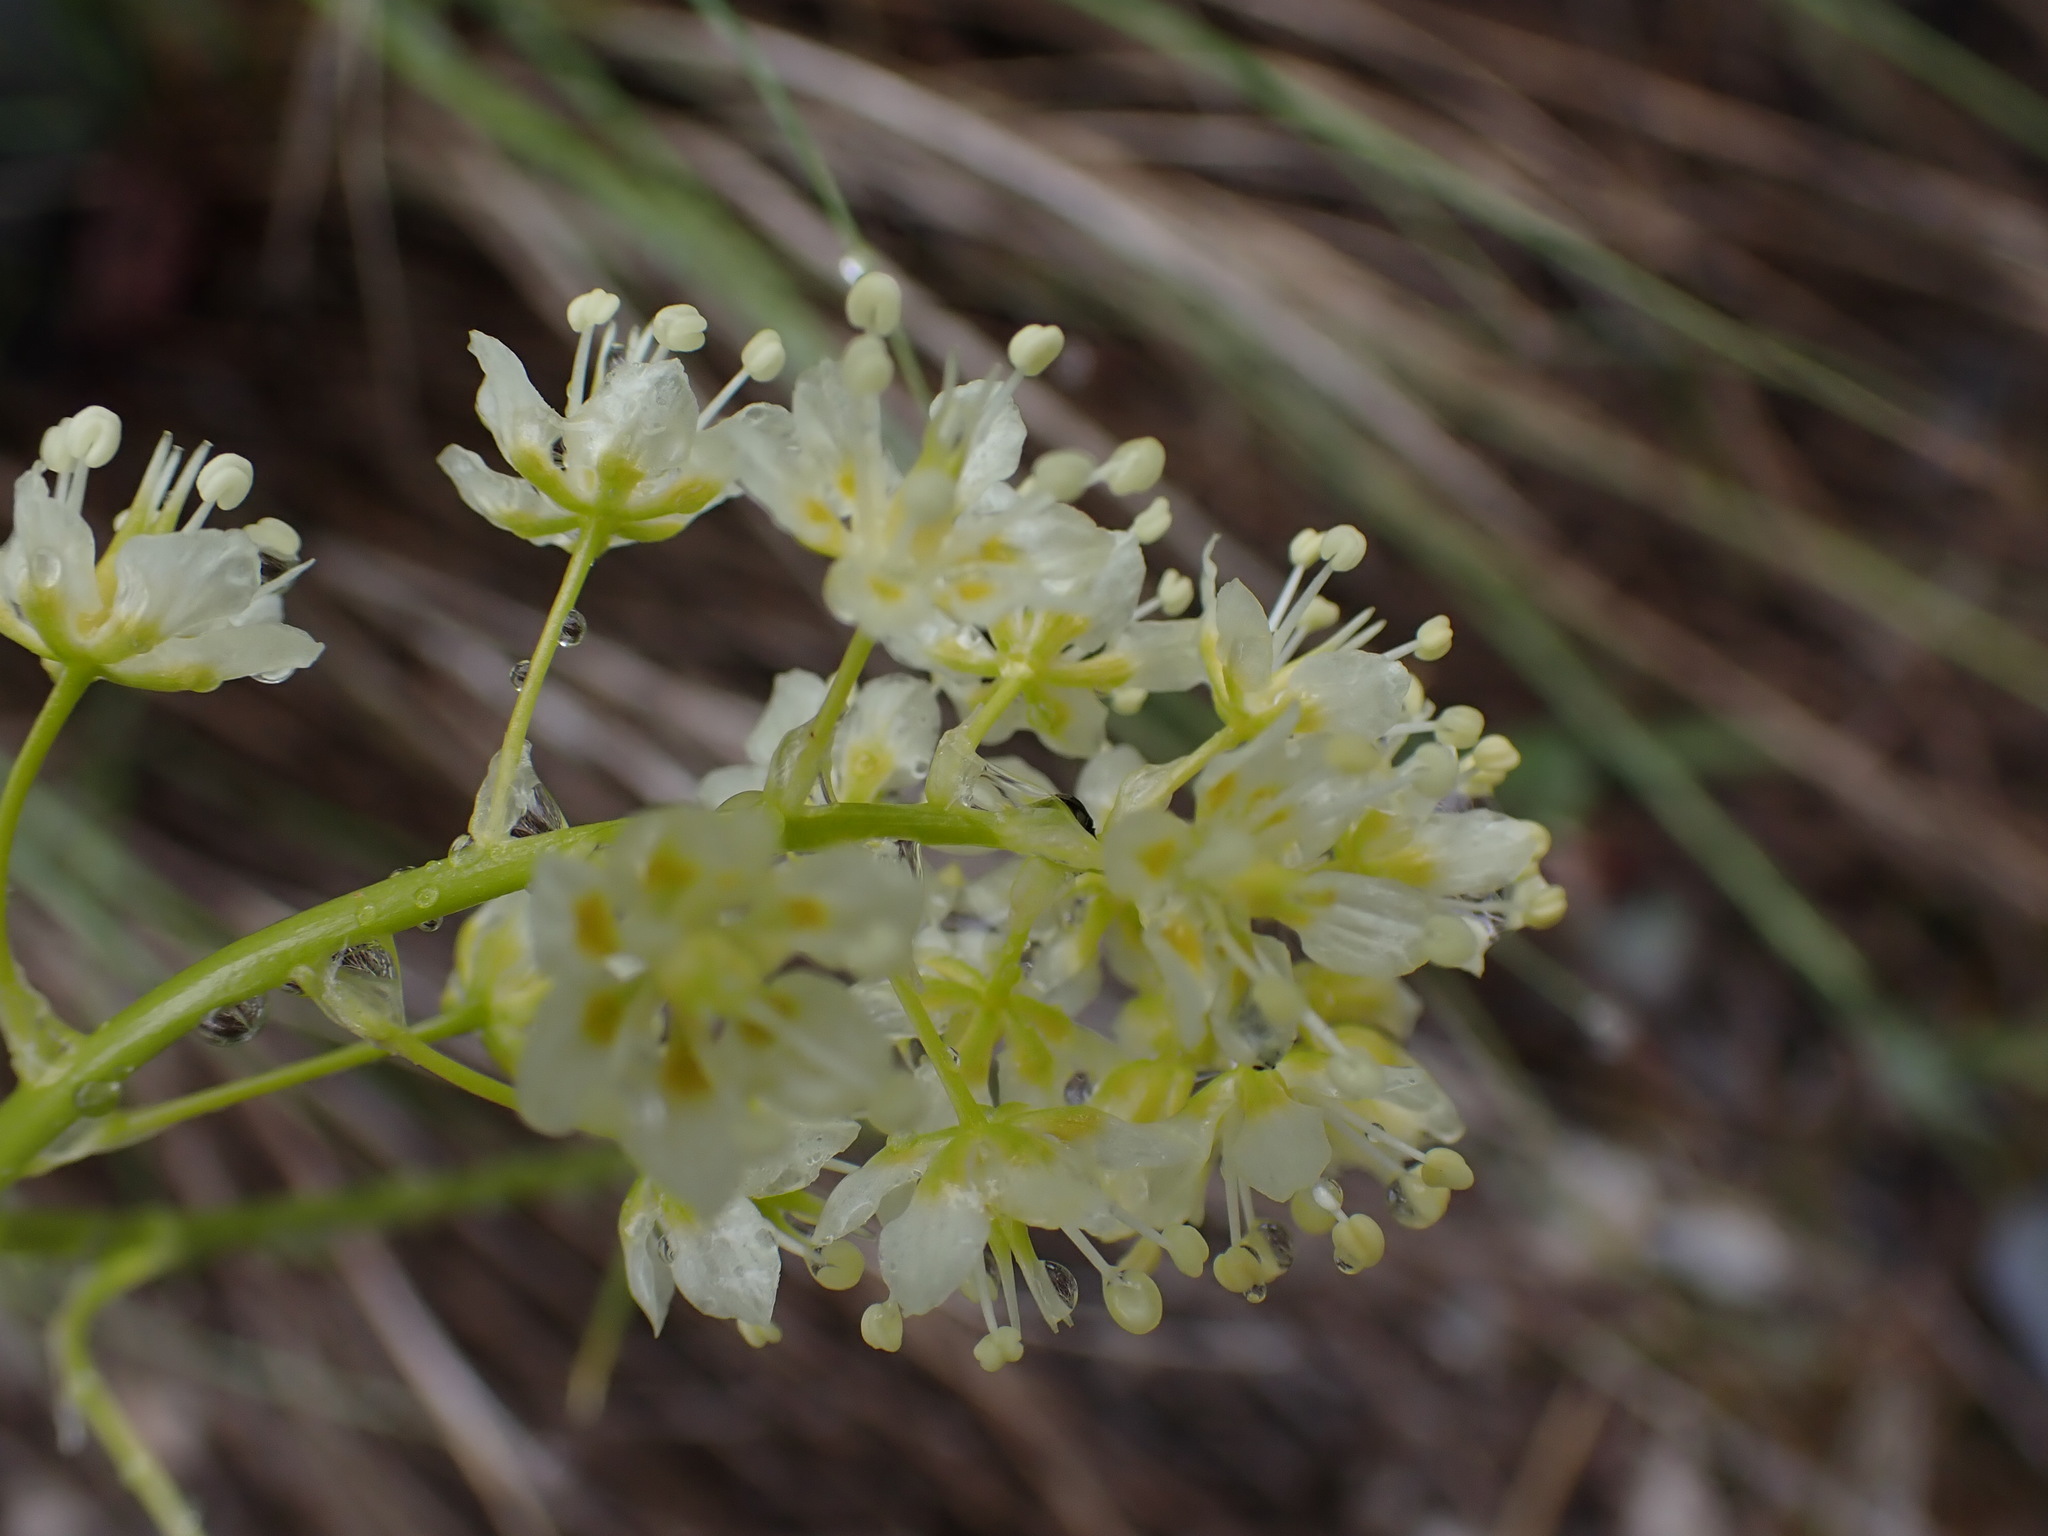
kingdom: Plantae
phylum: Tracheophyta
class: Liliopsida
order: Liliales
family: Melanthiaceae
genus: Toxicoscordion
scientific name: Toxicoscordion venenosum
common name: Meadow death camas
